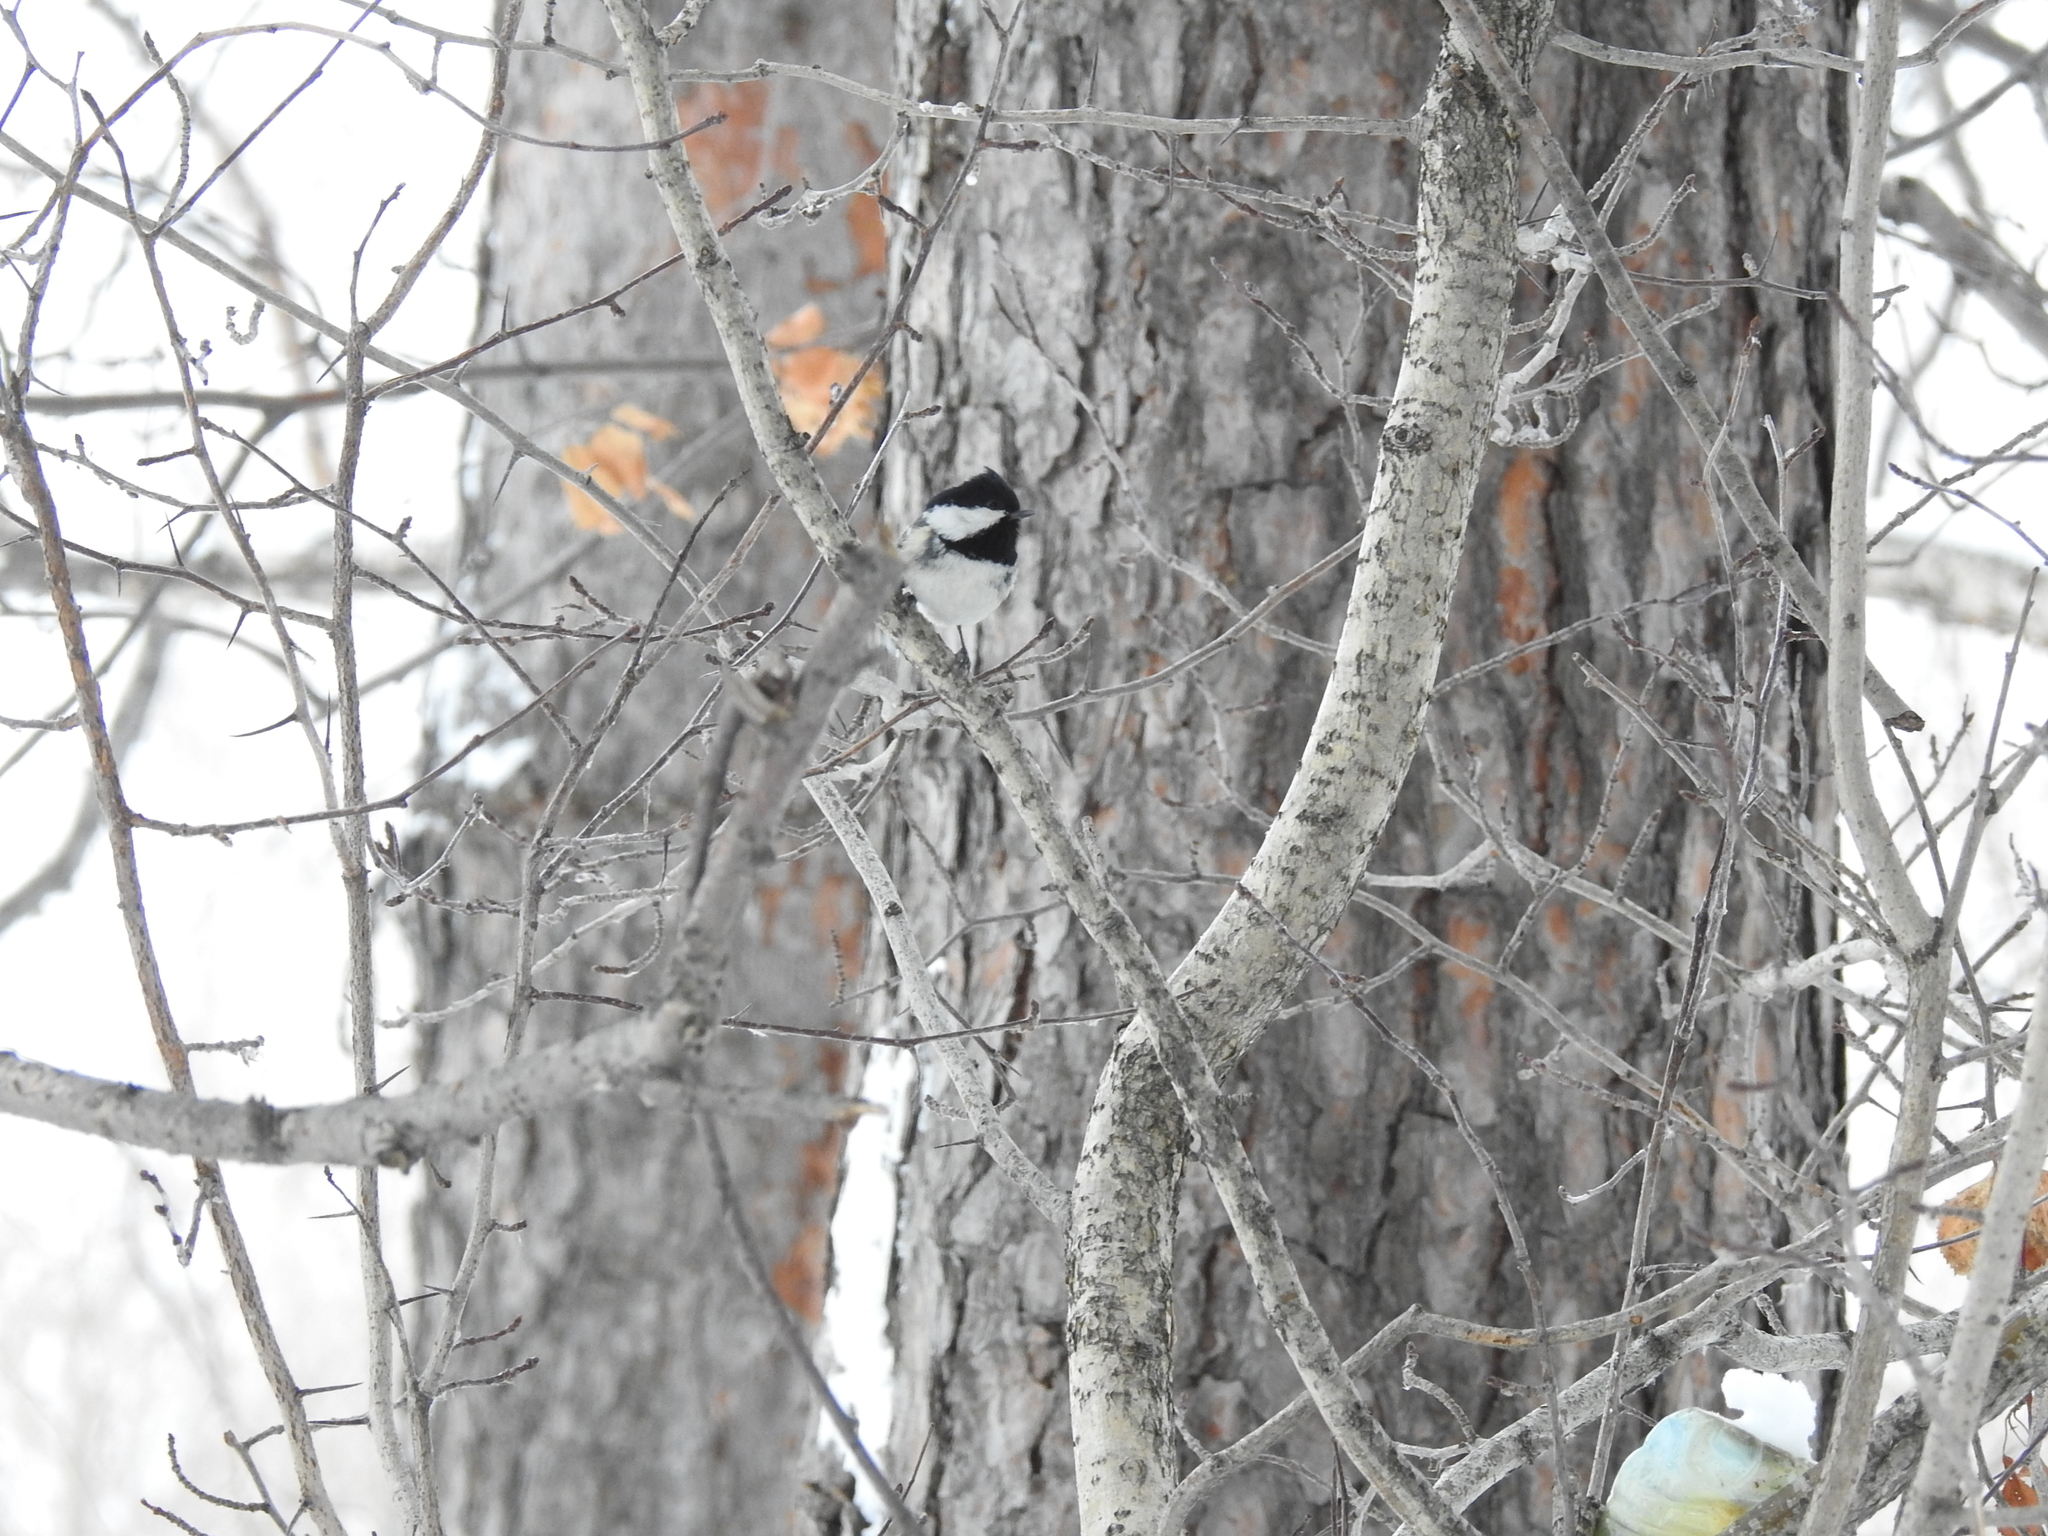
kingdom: Animalia
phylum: Chordata
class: Aves
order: Passeriformes
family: Paridae
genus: Periparus
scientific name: Periparus ater
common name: Coal tit
